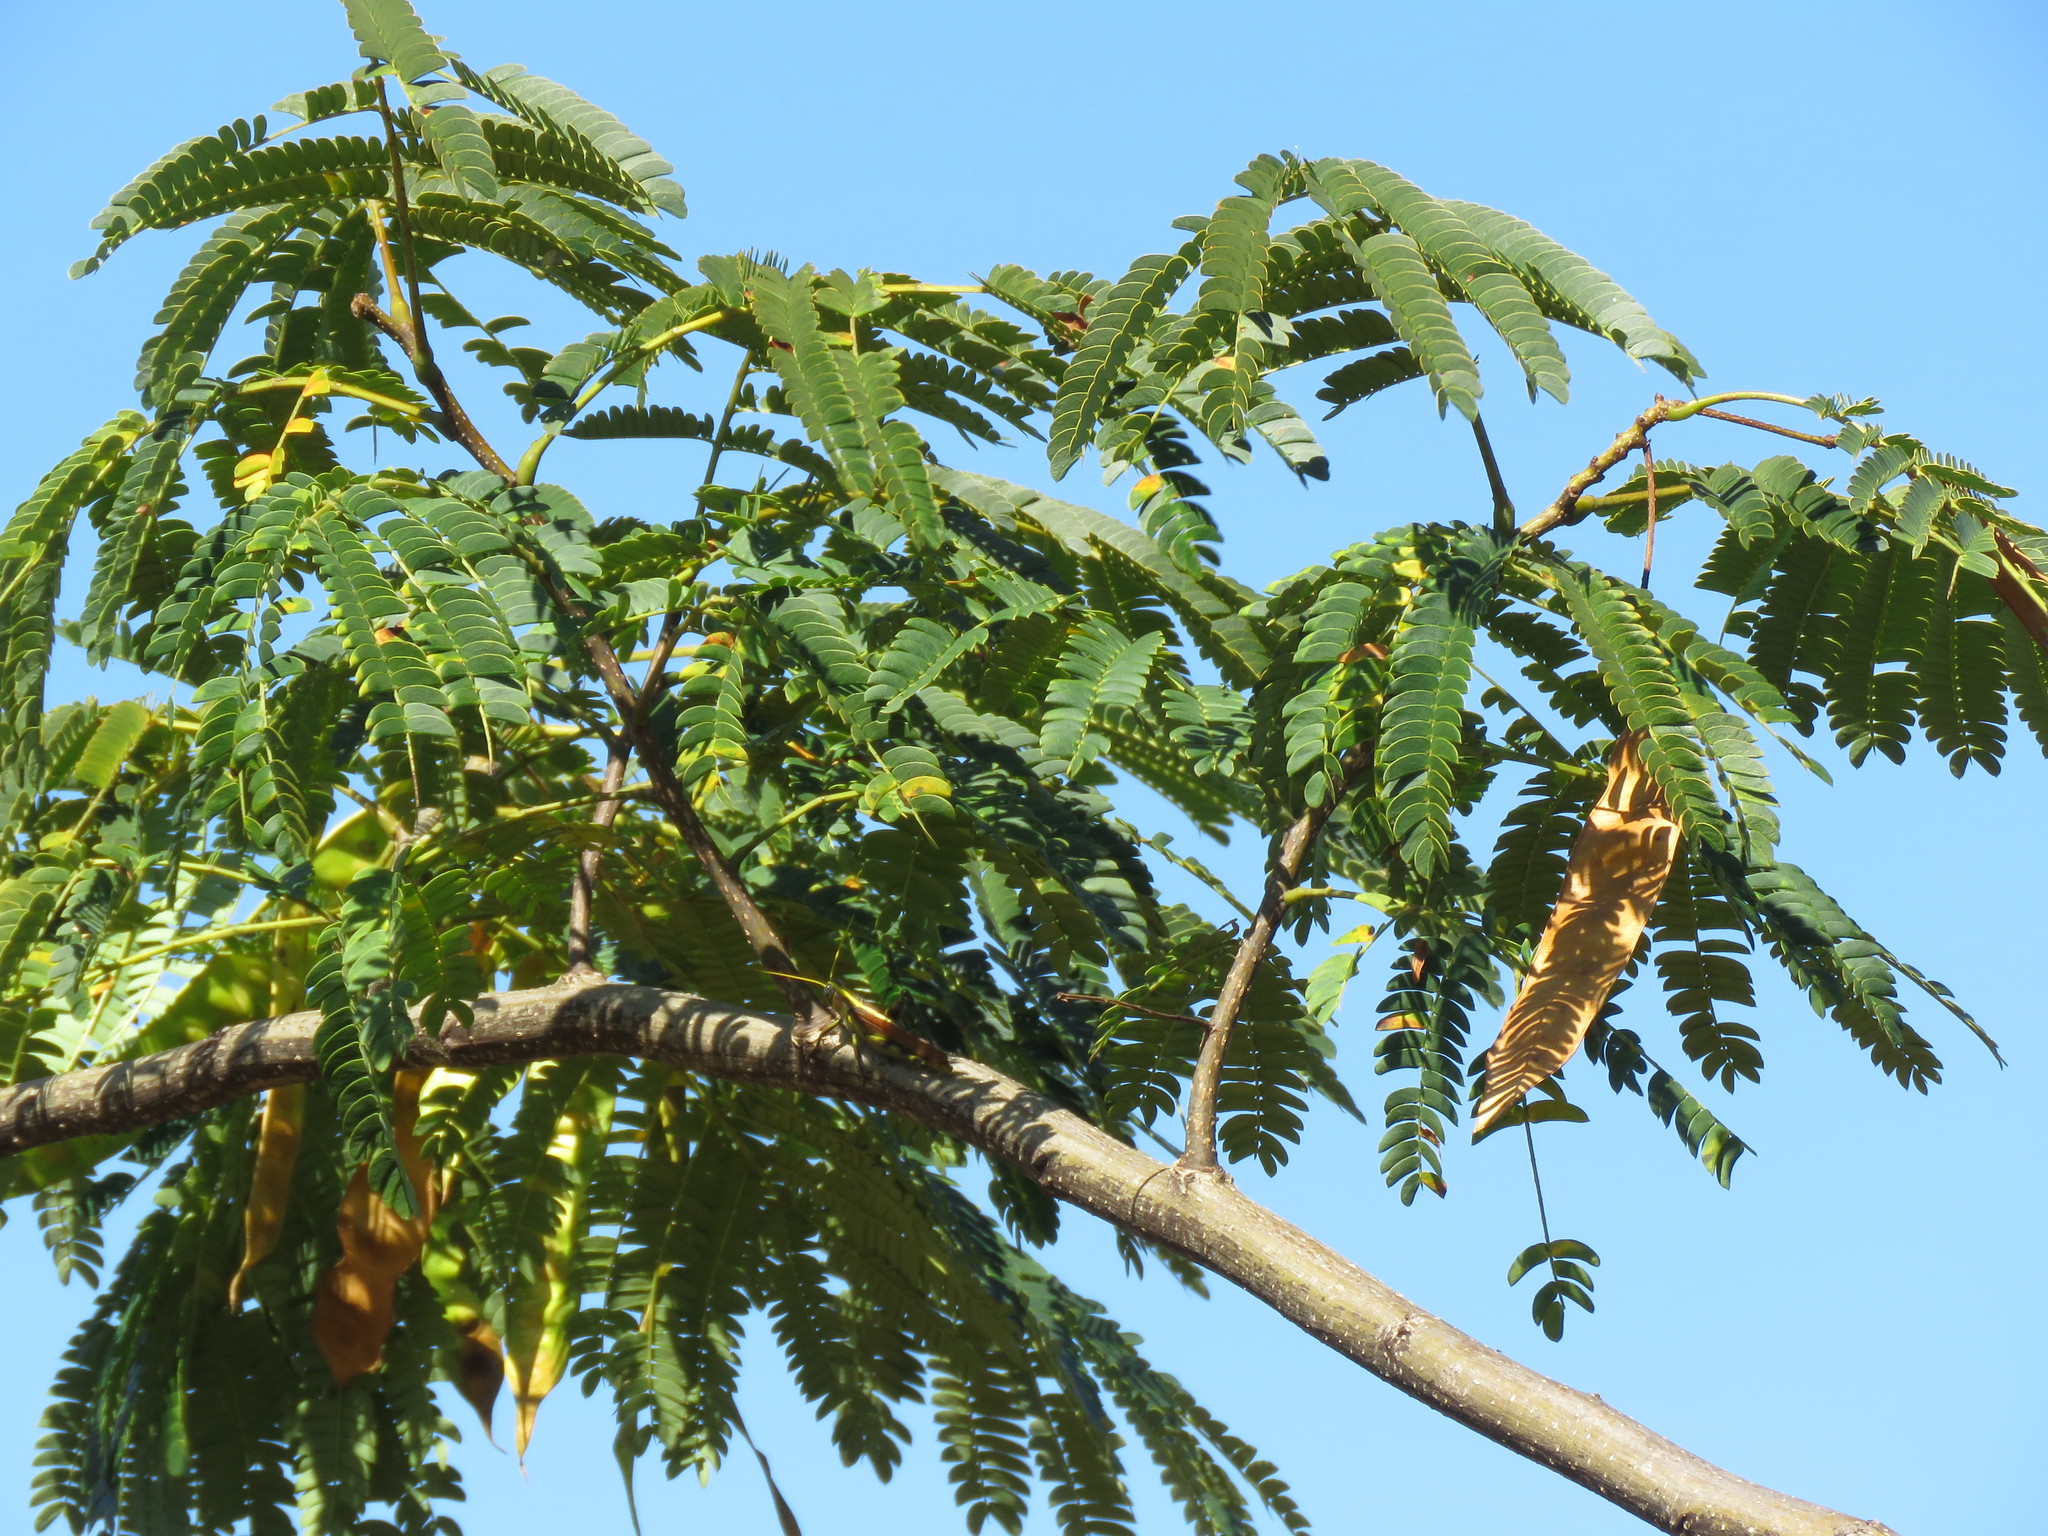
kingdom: Plantae
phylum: Tracheophyta
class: Magnoliopsida
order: Fabales
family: Fabaceae
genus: Albizia
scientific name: Albizia julibrissin
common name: Silktree
